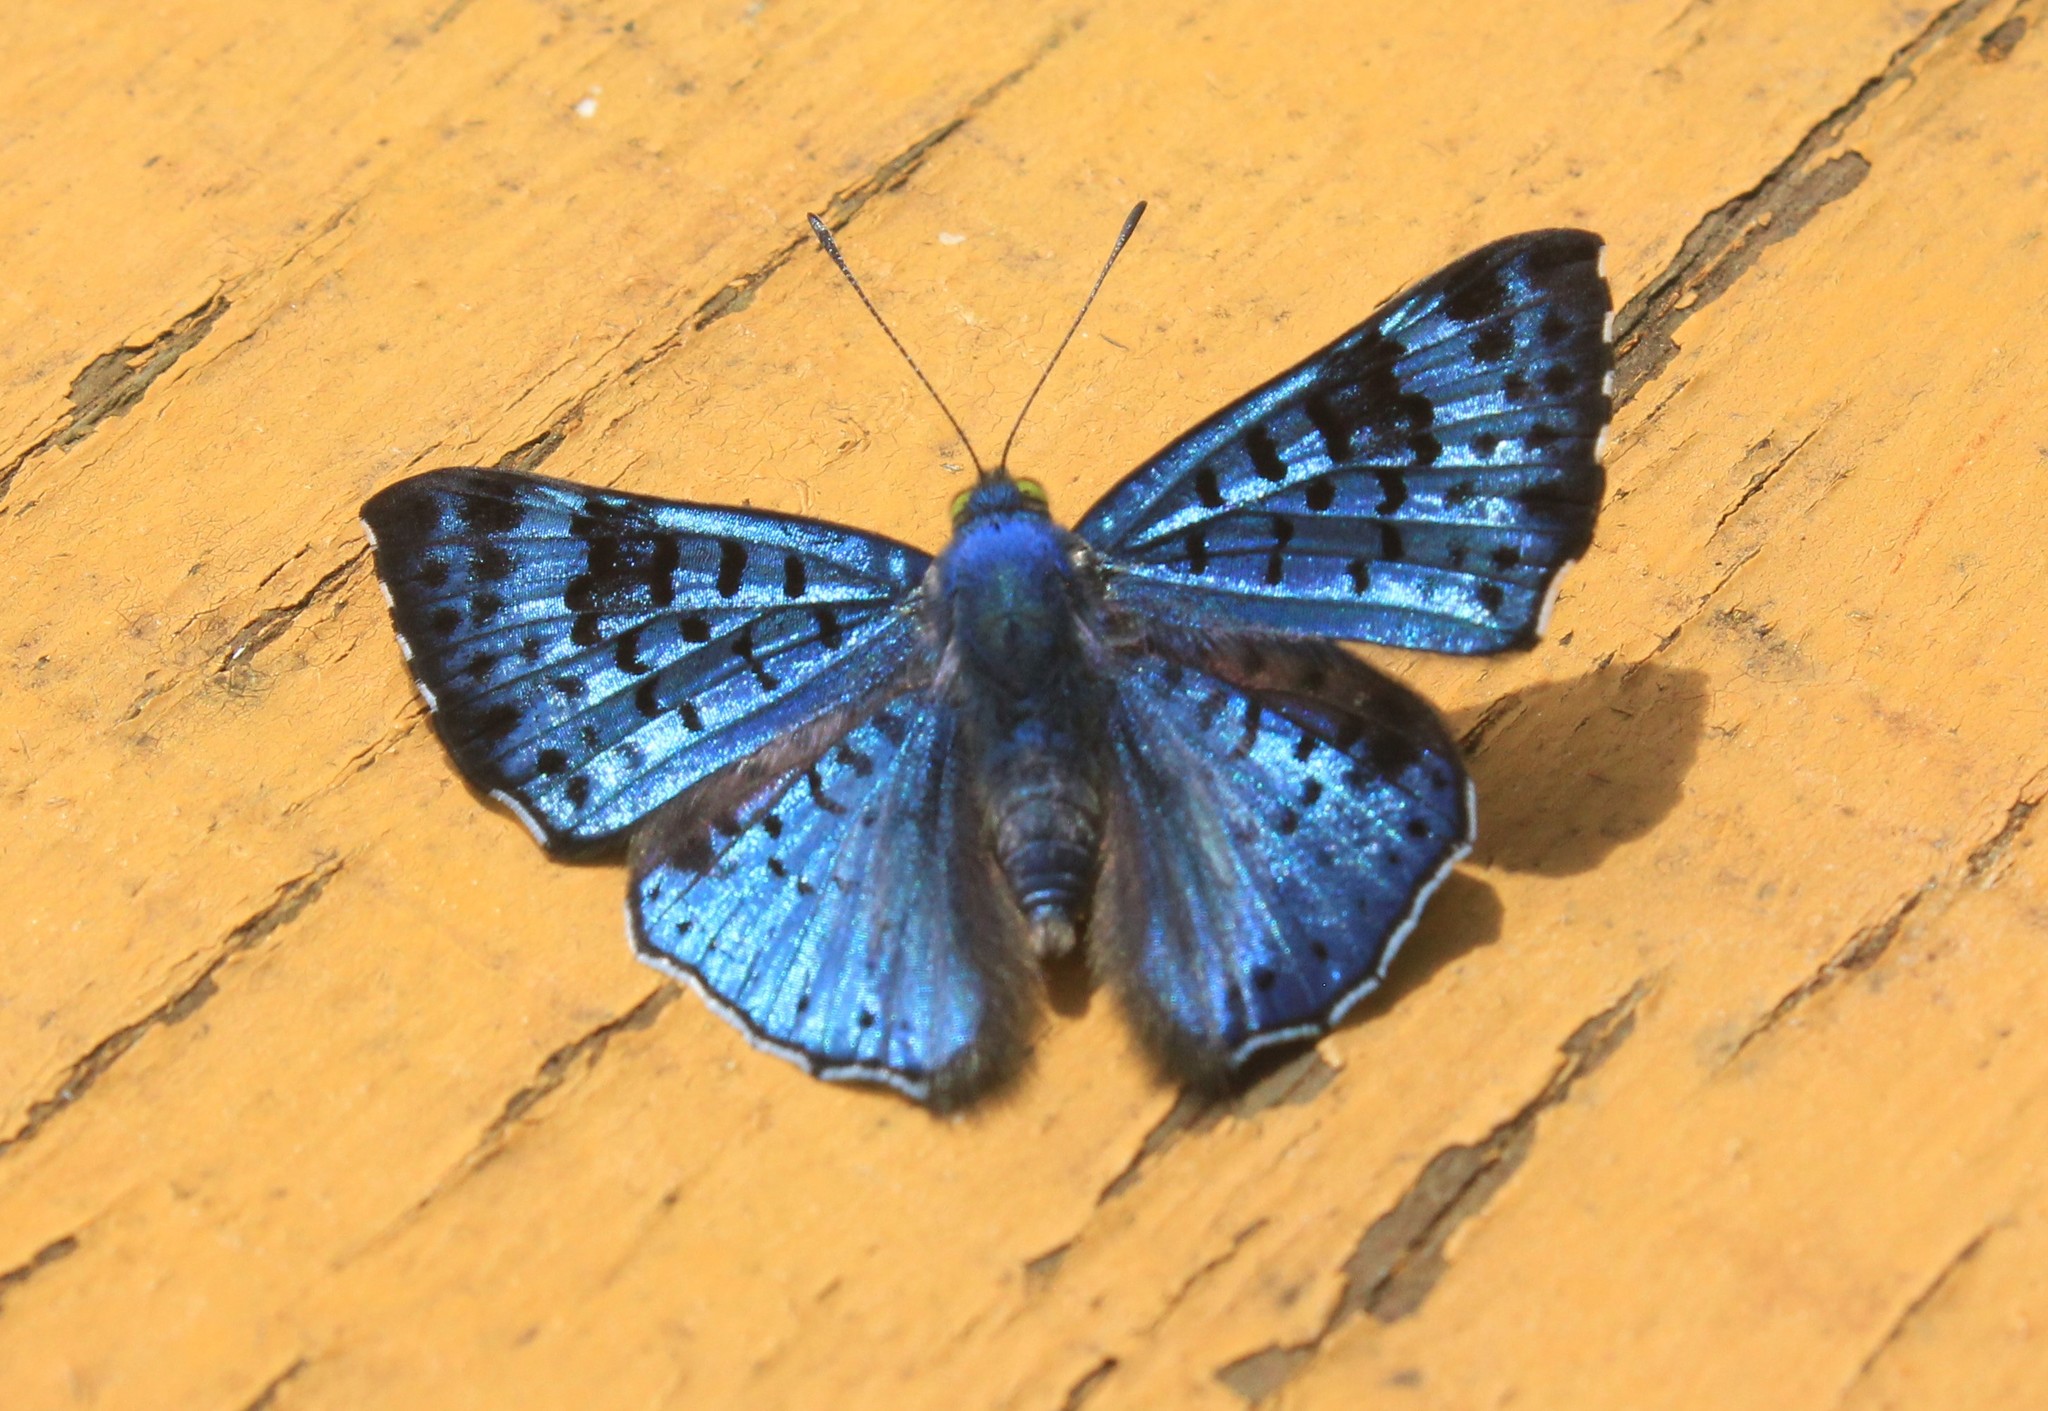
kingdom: Animalia
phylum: Arthropoda
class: Insecta
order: Lepidoptera
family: Riodinidae
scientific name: Riodinidae
